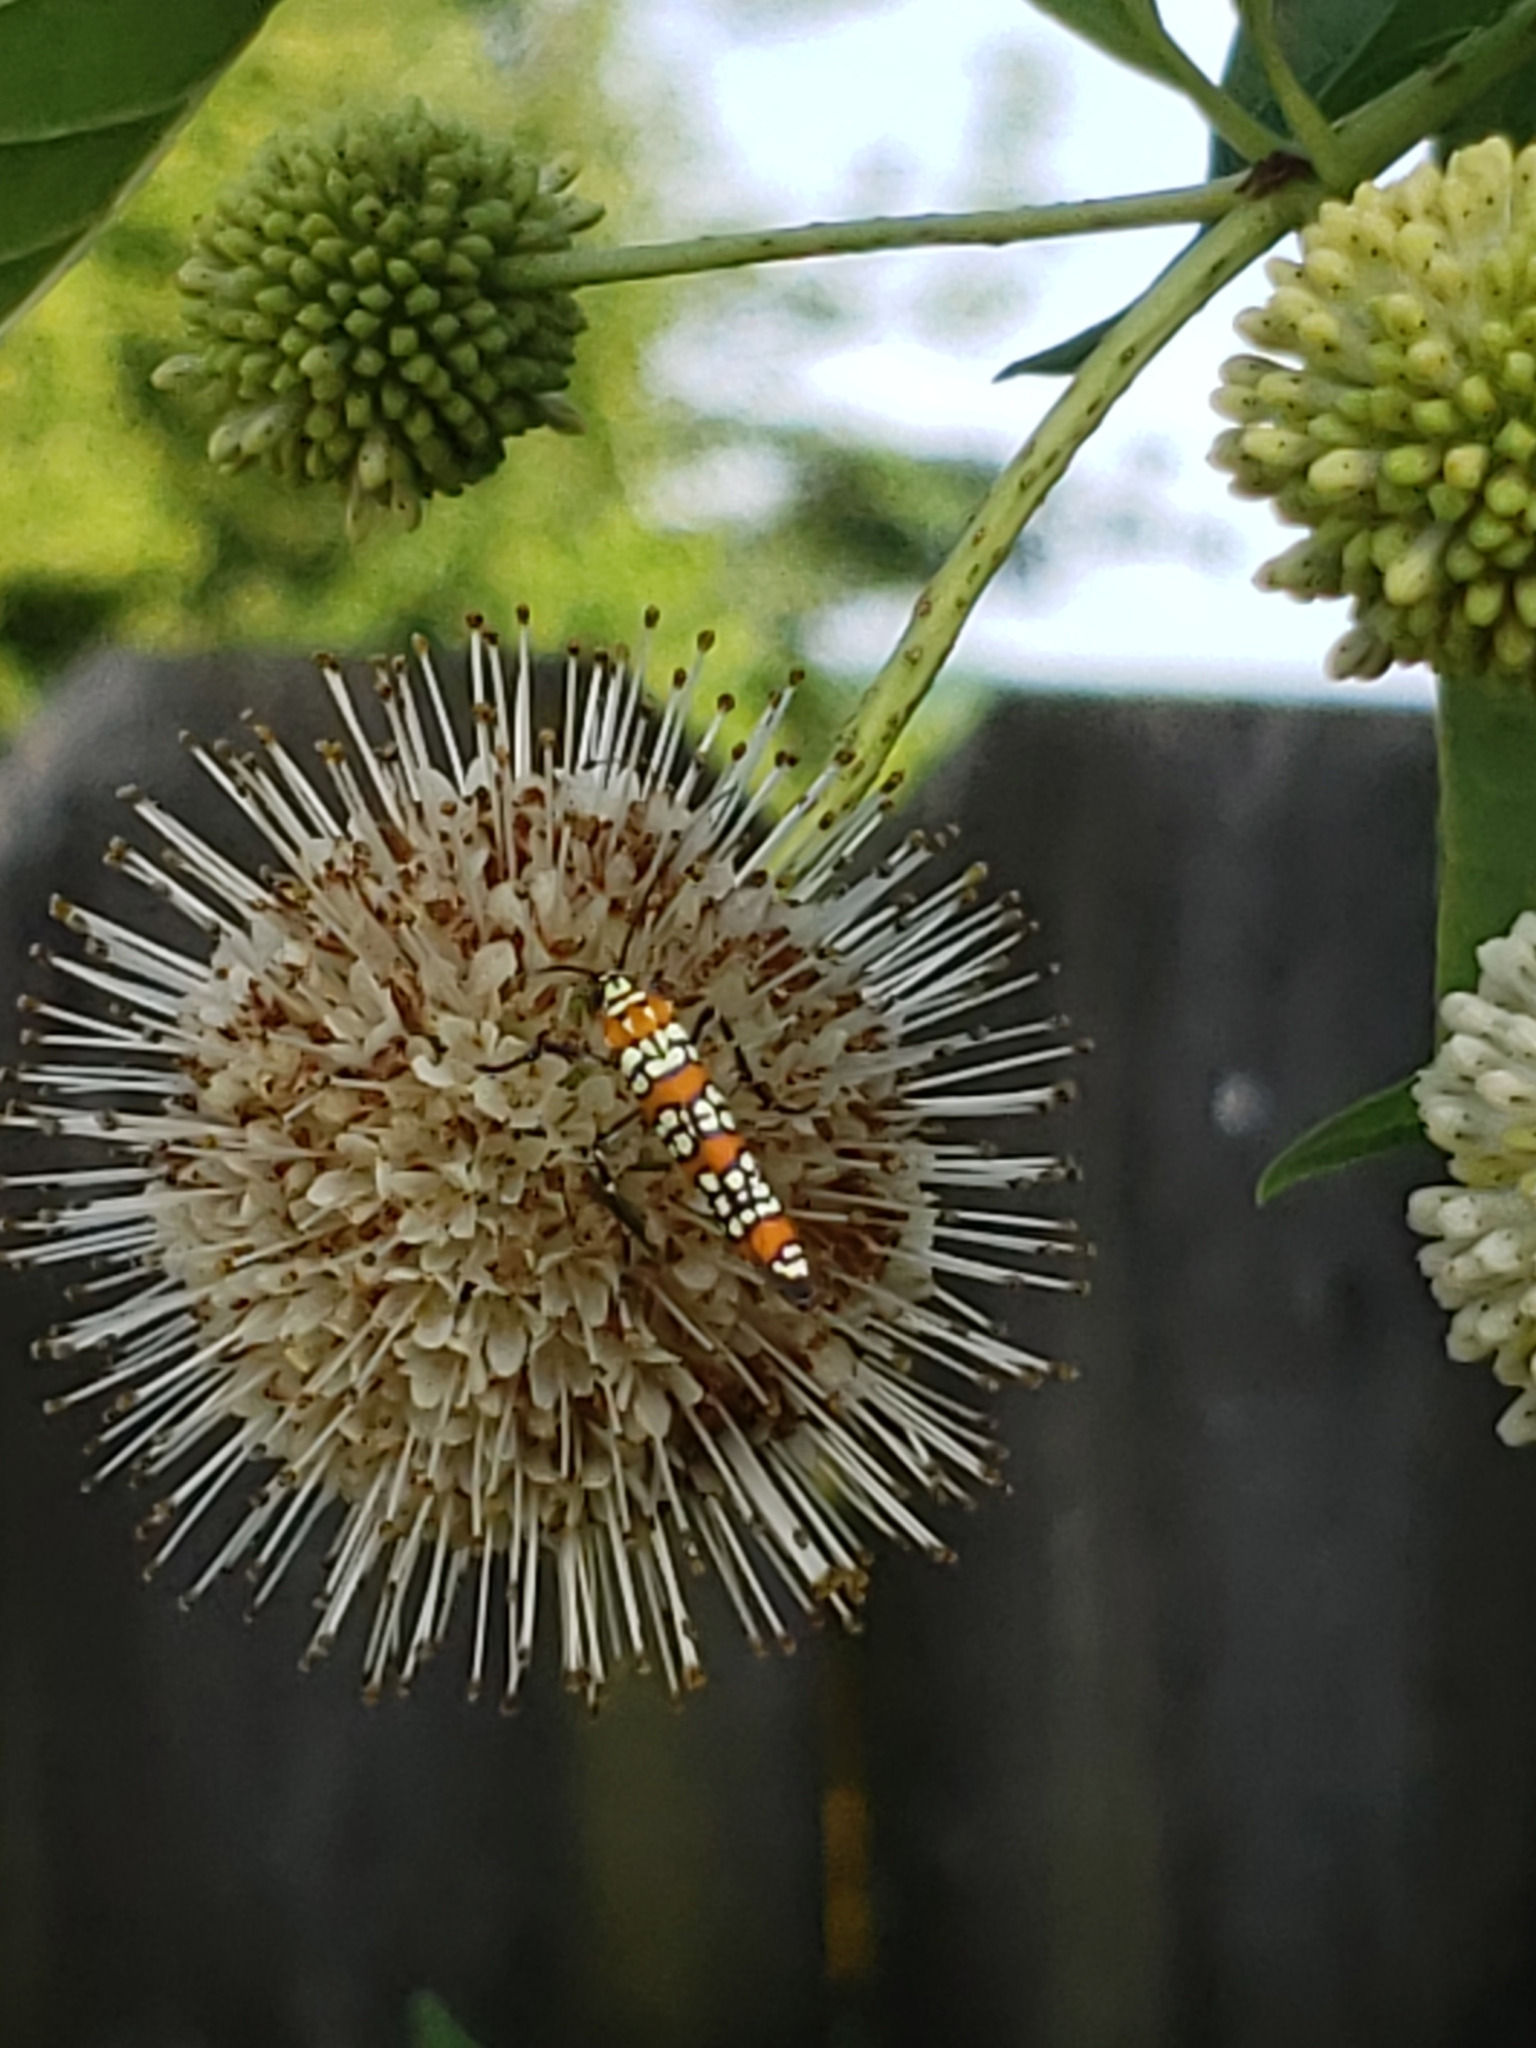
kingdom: Animalia
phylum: Arthropoda
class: Insecta
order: Lepidoptera
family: Attevidae
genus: Atteva
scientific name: Atteva punctella
